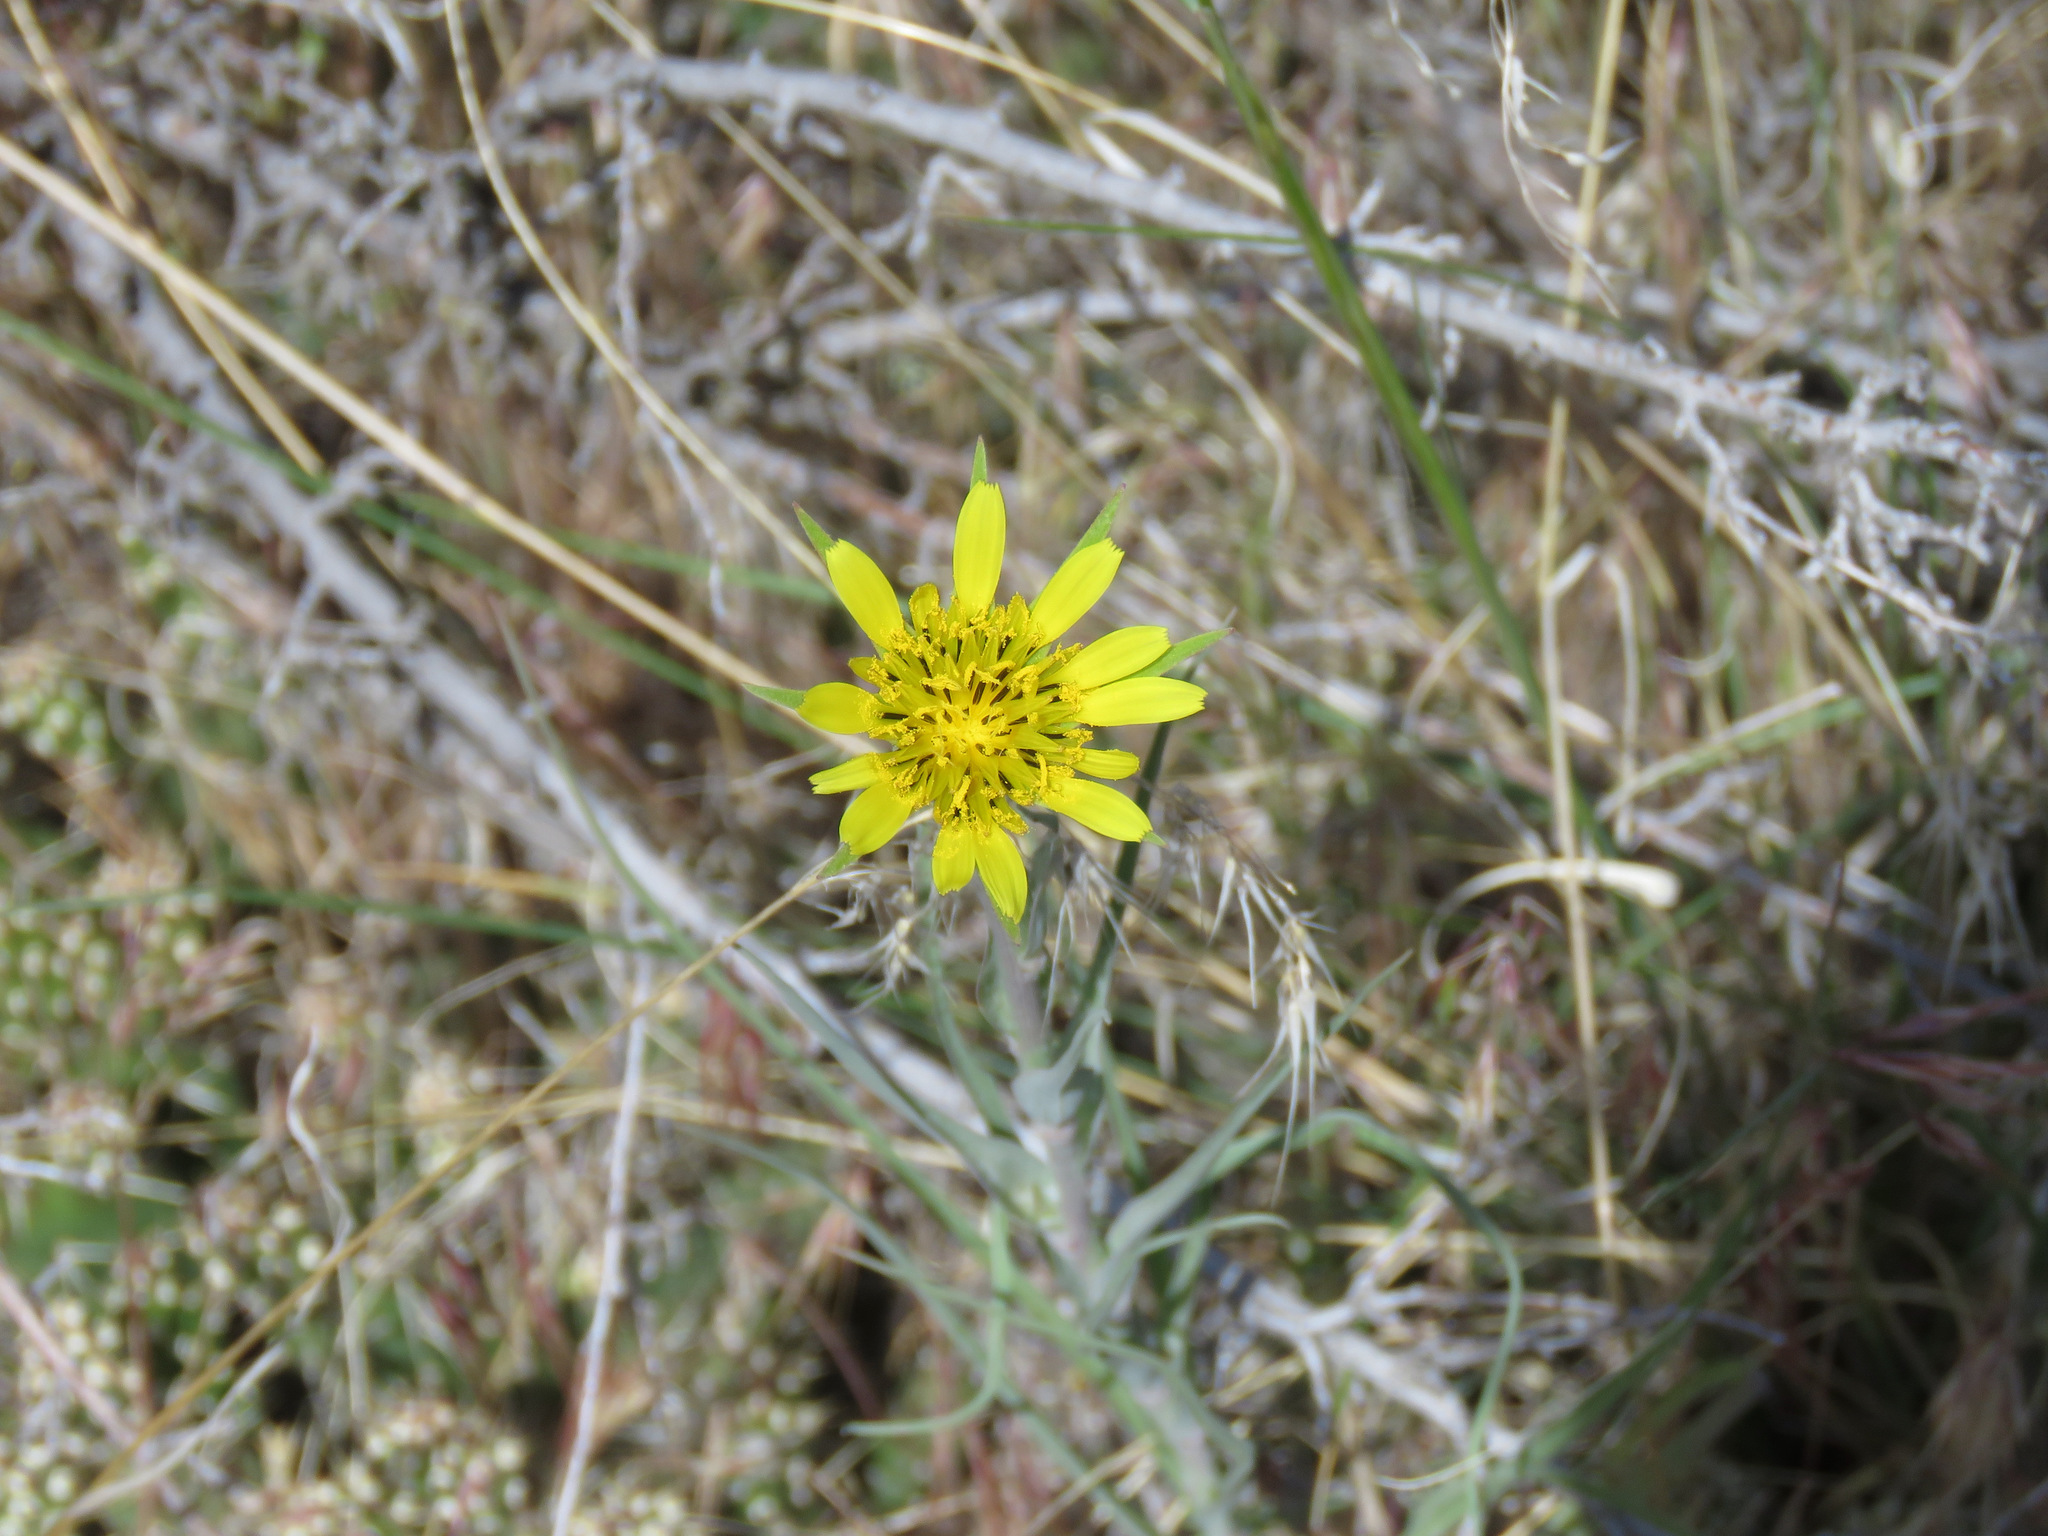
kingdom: Plantae
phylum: Tracheophyta
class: Magnoliopsida
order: Asterales
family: Asteraceae
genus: Tragopogon
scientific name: Tragopogon dubius
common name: Yellow salsify
